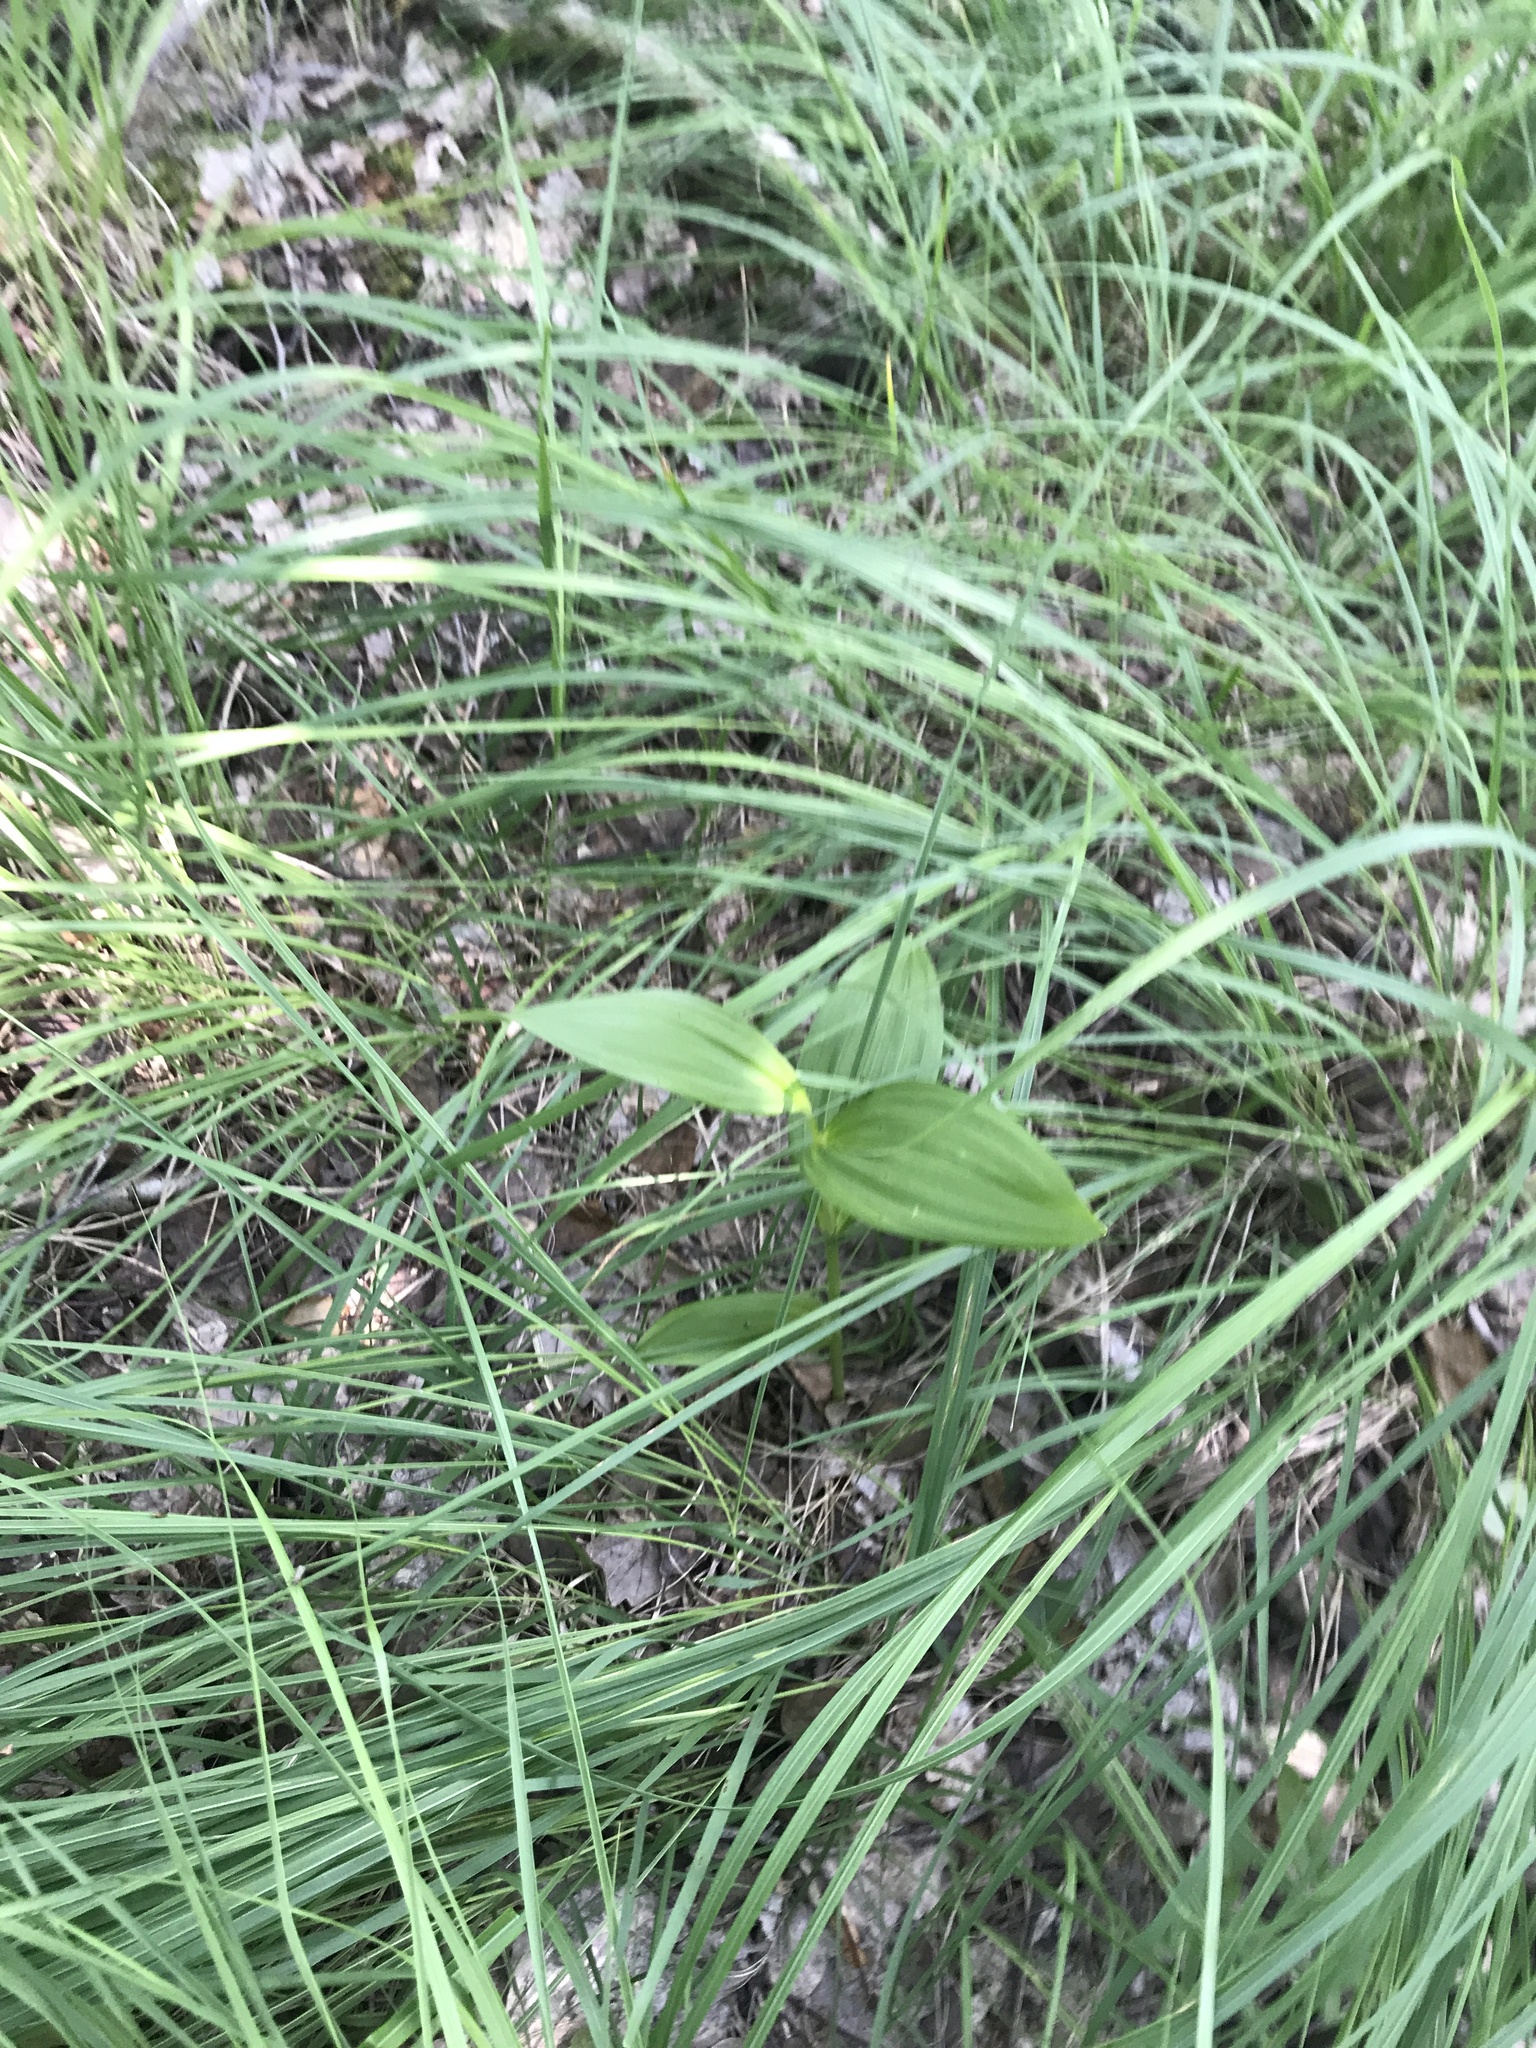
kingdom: Plantae
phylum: Tracheophyta
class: Liliopsida
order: Liliales
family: Melanthiaceae
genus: Veratrum
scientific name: Veratrum lobelianum
